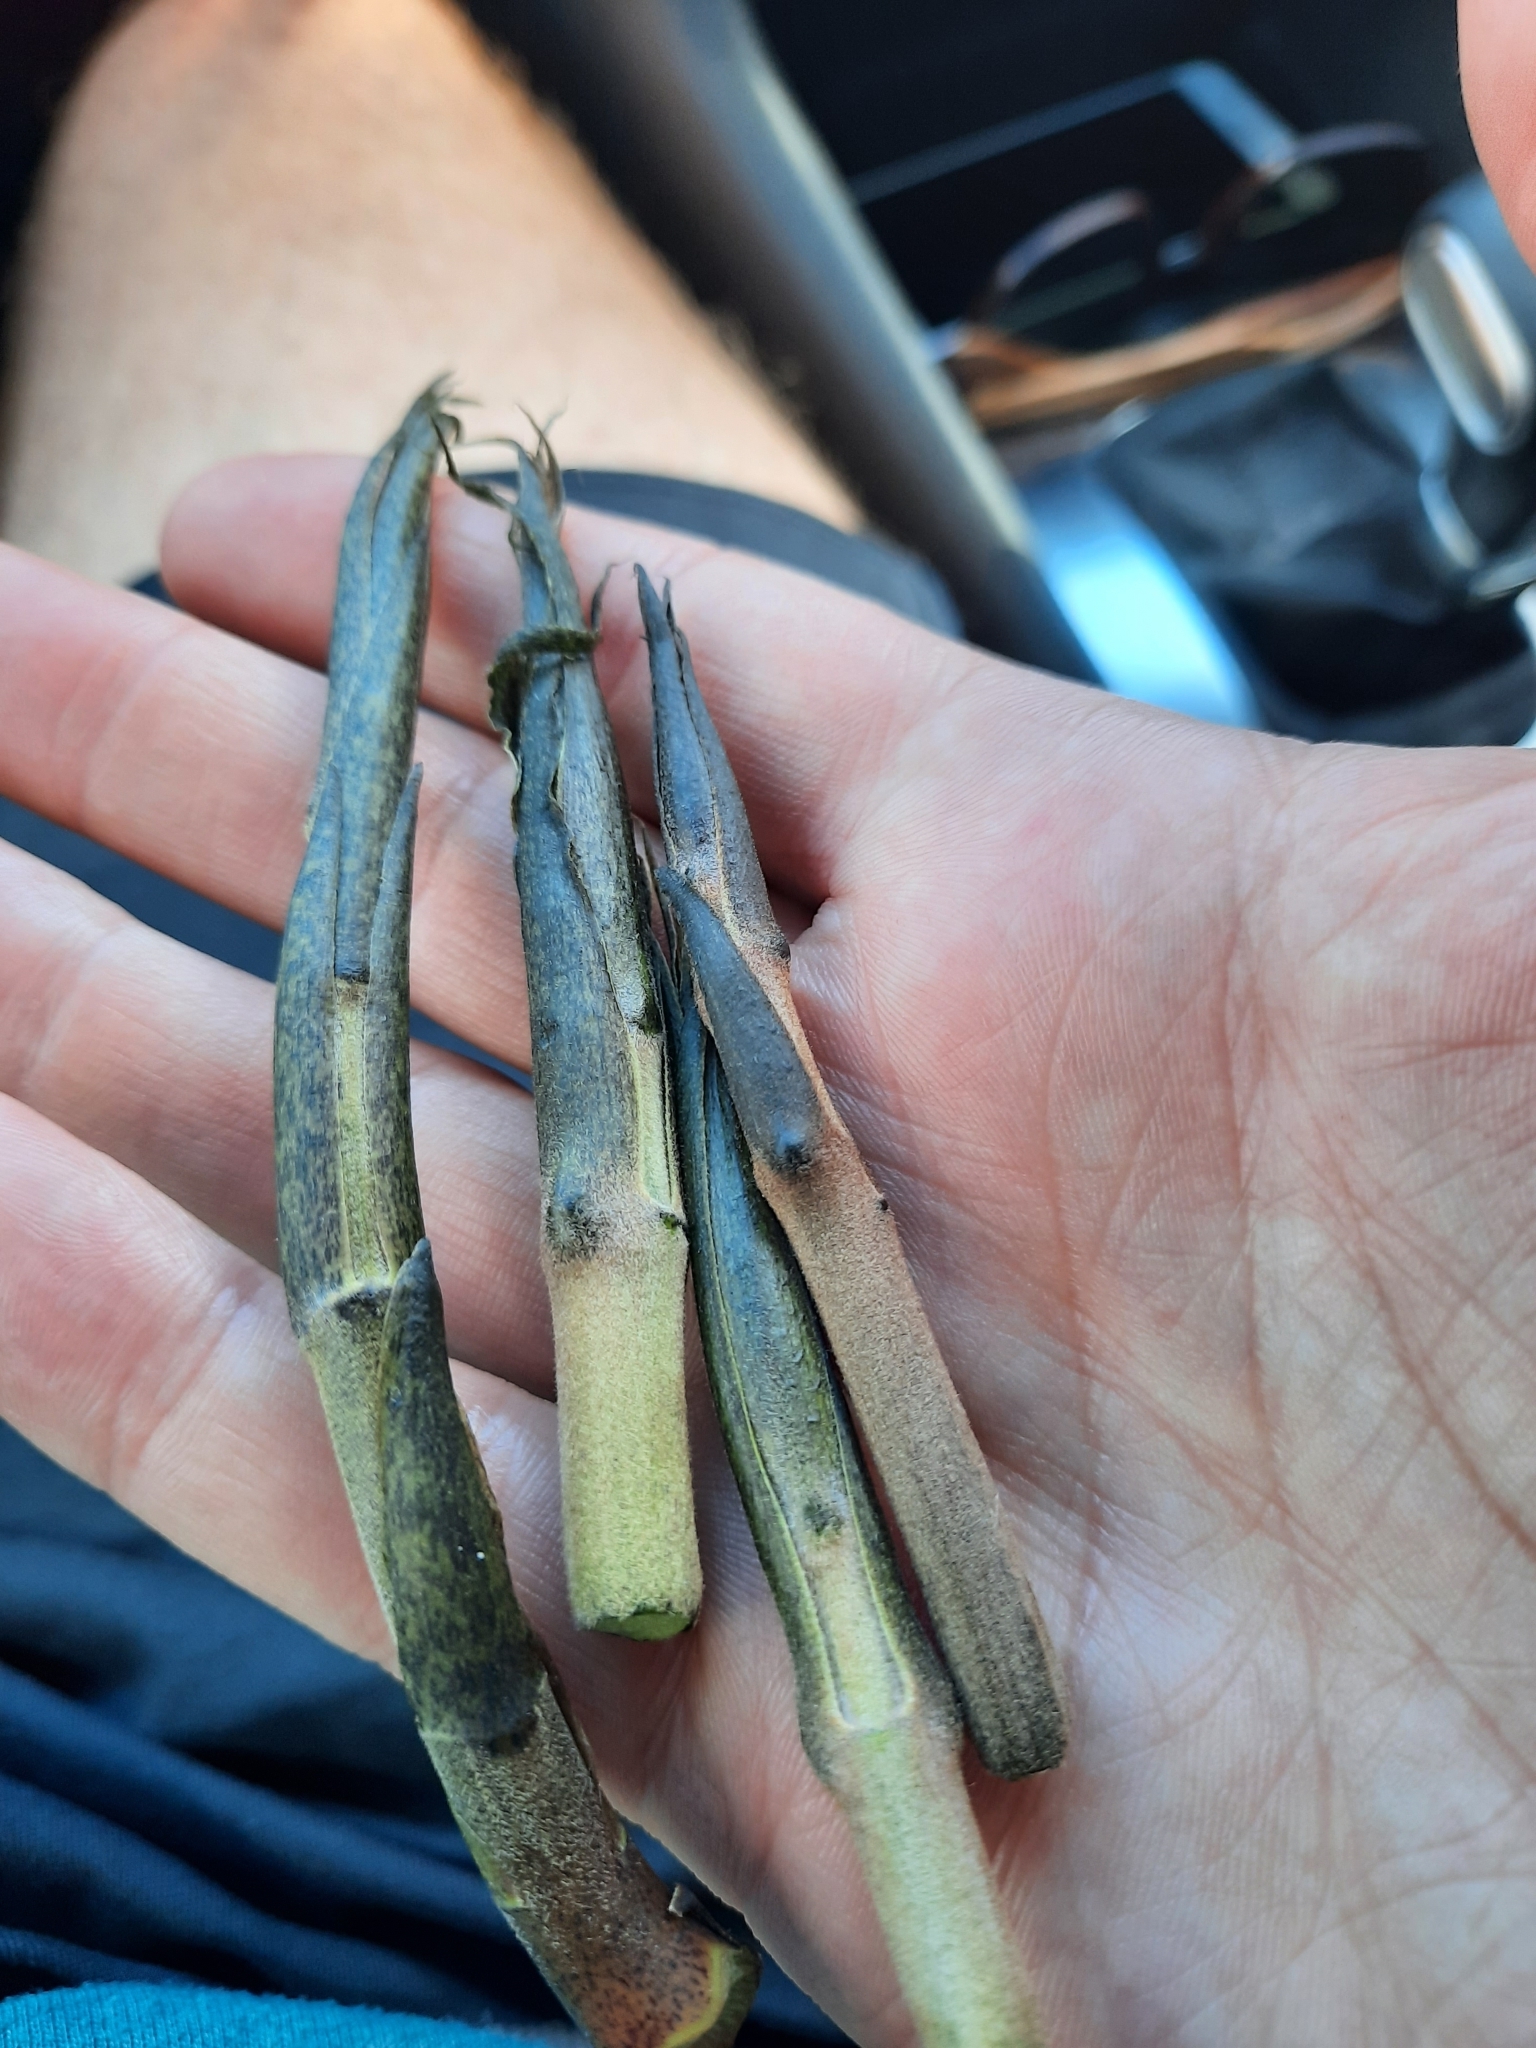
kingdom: Plantae
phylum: Tracheophyta
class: Liliopsida
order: Liliales
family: Ripogonaceae
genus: Ripogonum
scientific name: Ripogonum scandens
